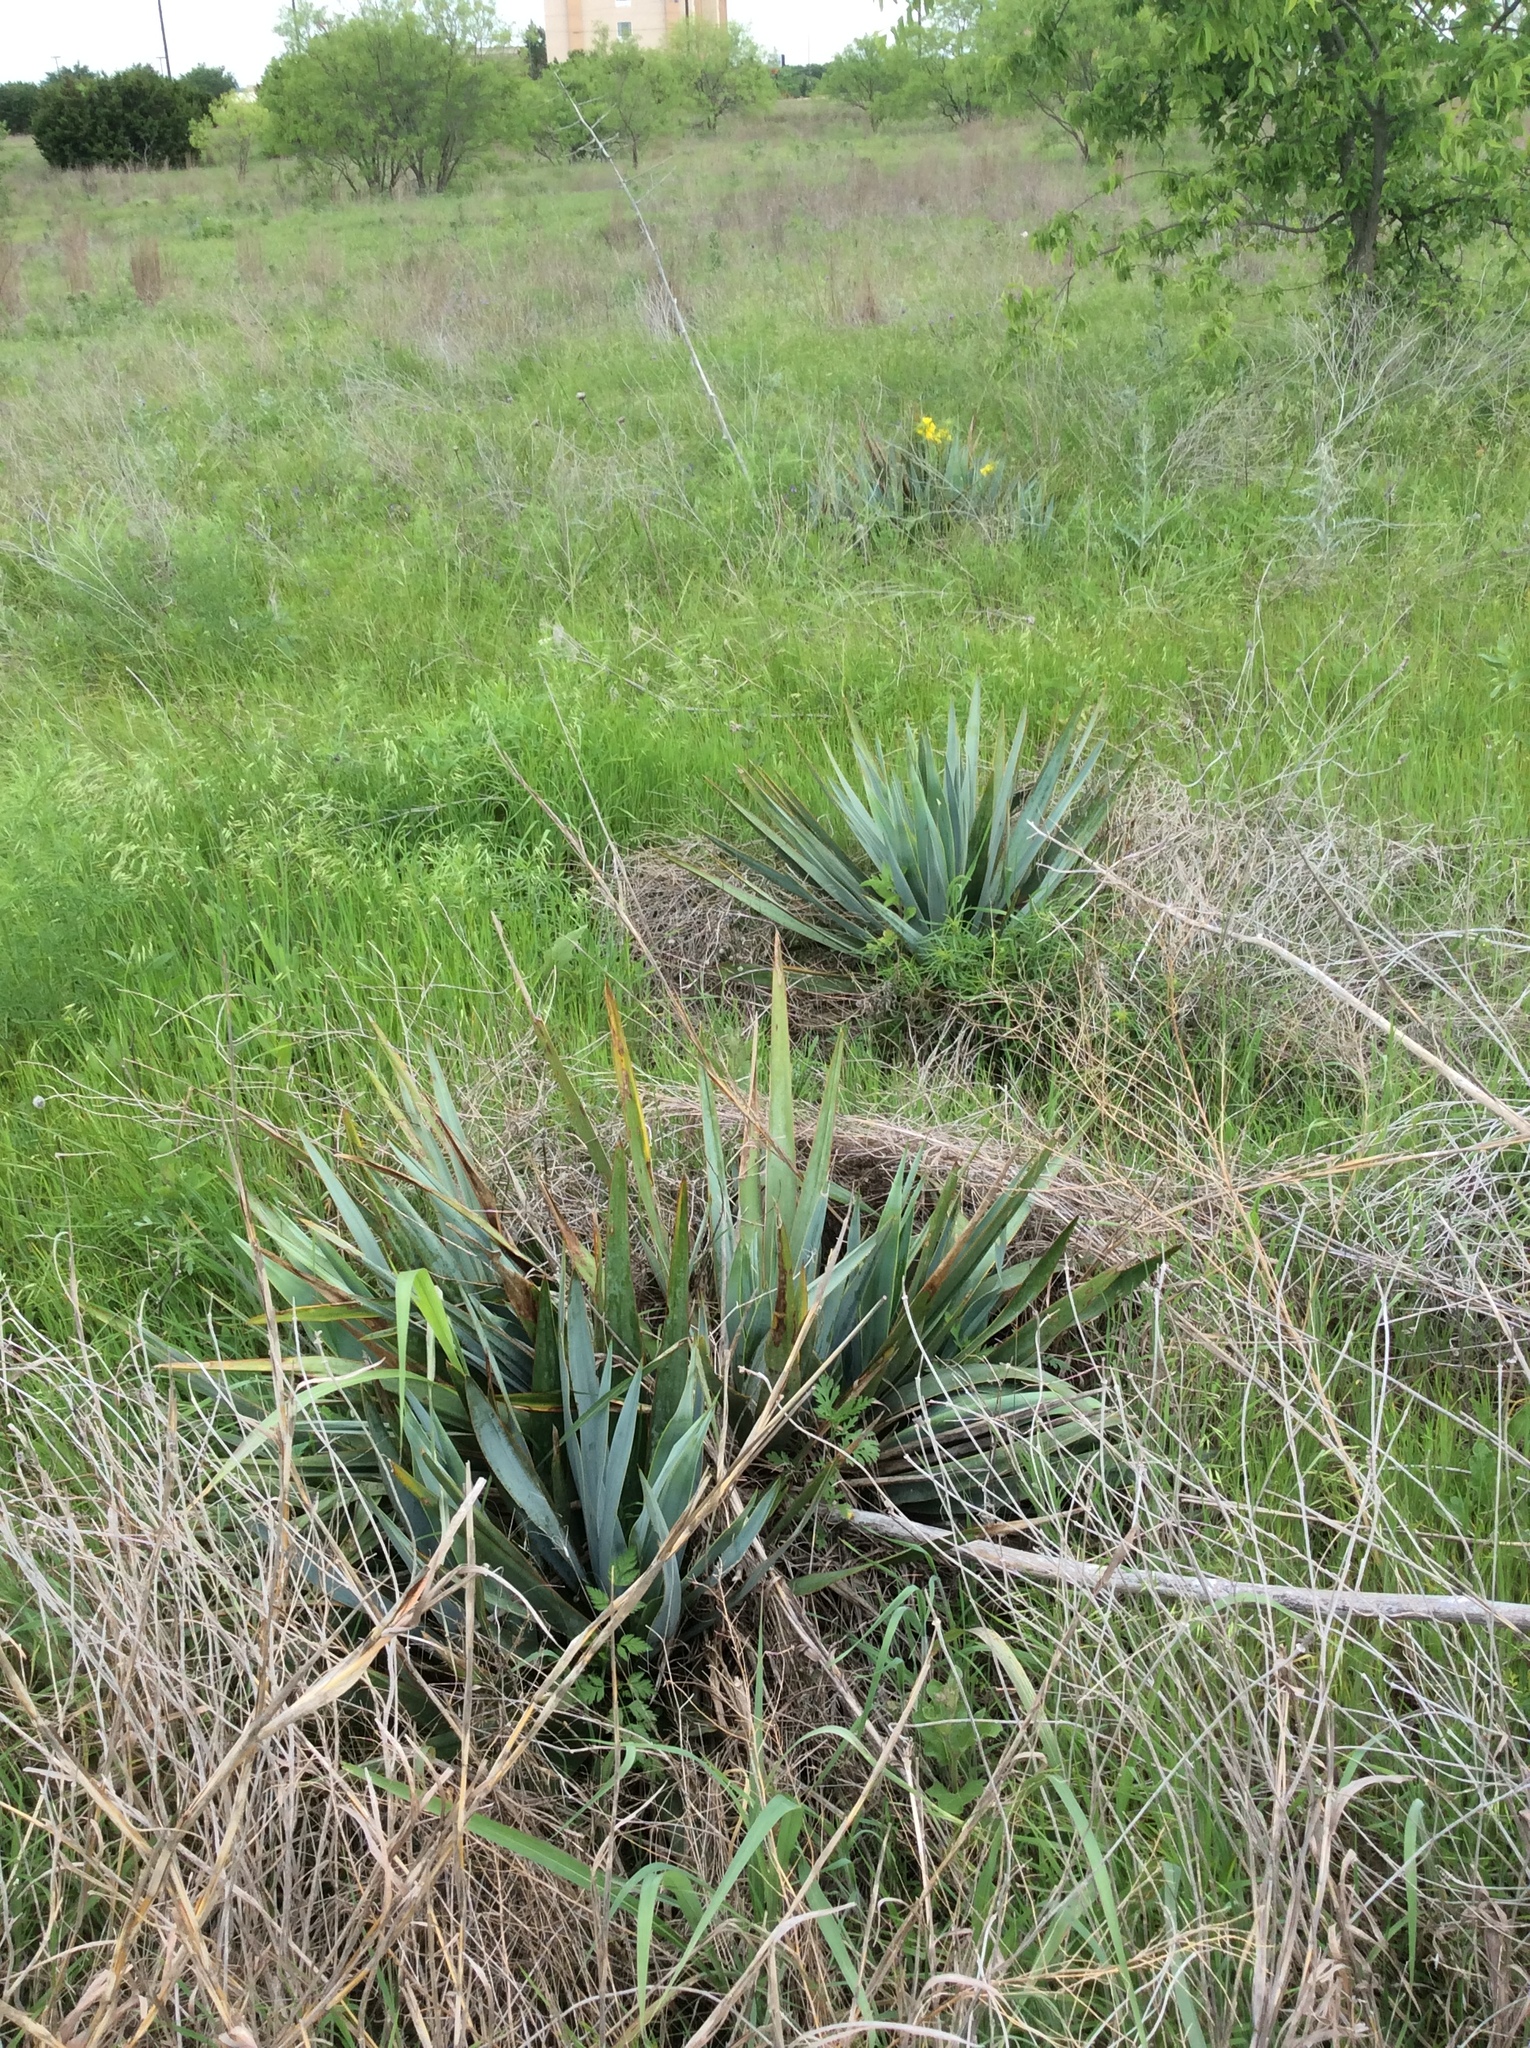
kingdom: Plantae
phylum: Tracheophyta
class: Liliopsida
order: Asparagales
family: Asparagaceae
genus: Yucca
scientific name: Yucca pallida
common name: Pale leaf yucca
